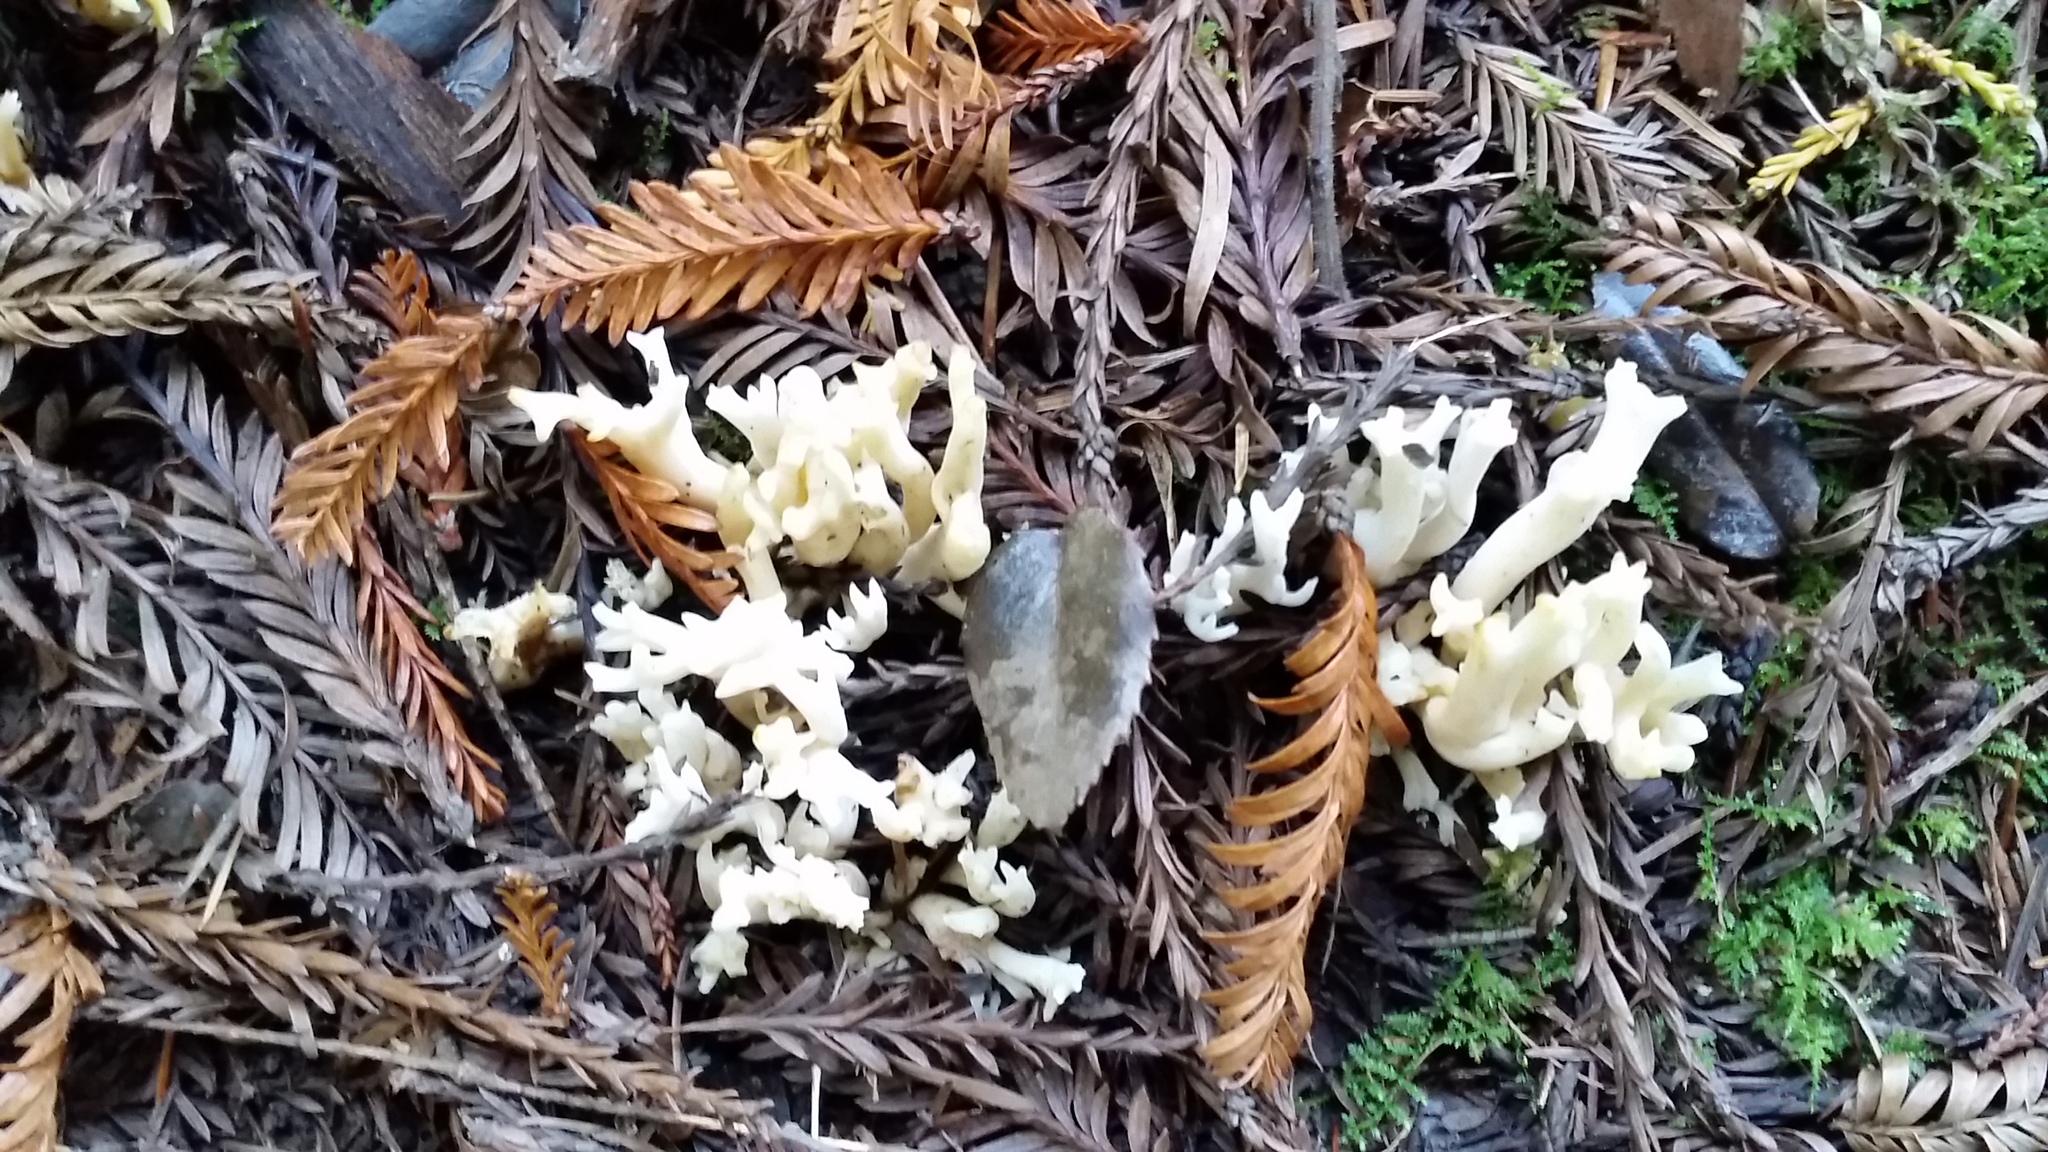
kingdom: Fungi
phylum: Basidiomycota
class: Agaricomycetes
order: Cantharellales
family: Hydnaceae
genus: Clavulina
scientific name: Clavulina coralloides
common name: Crested coral
